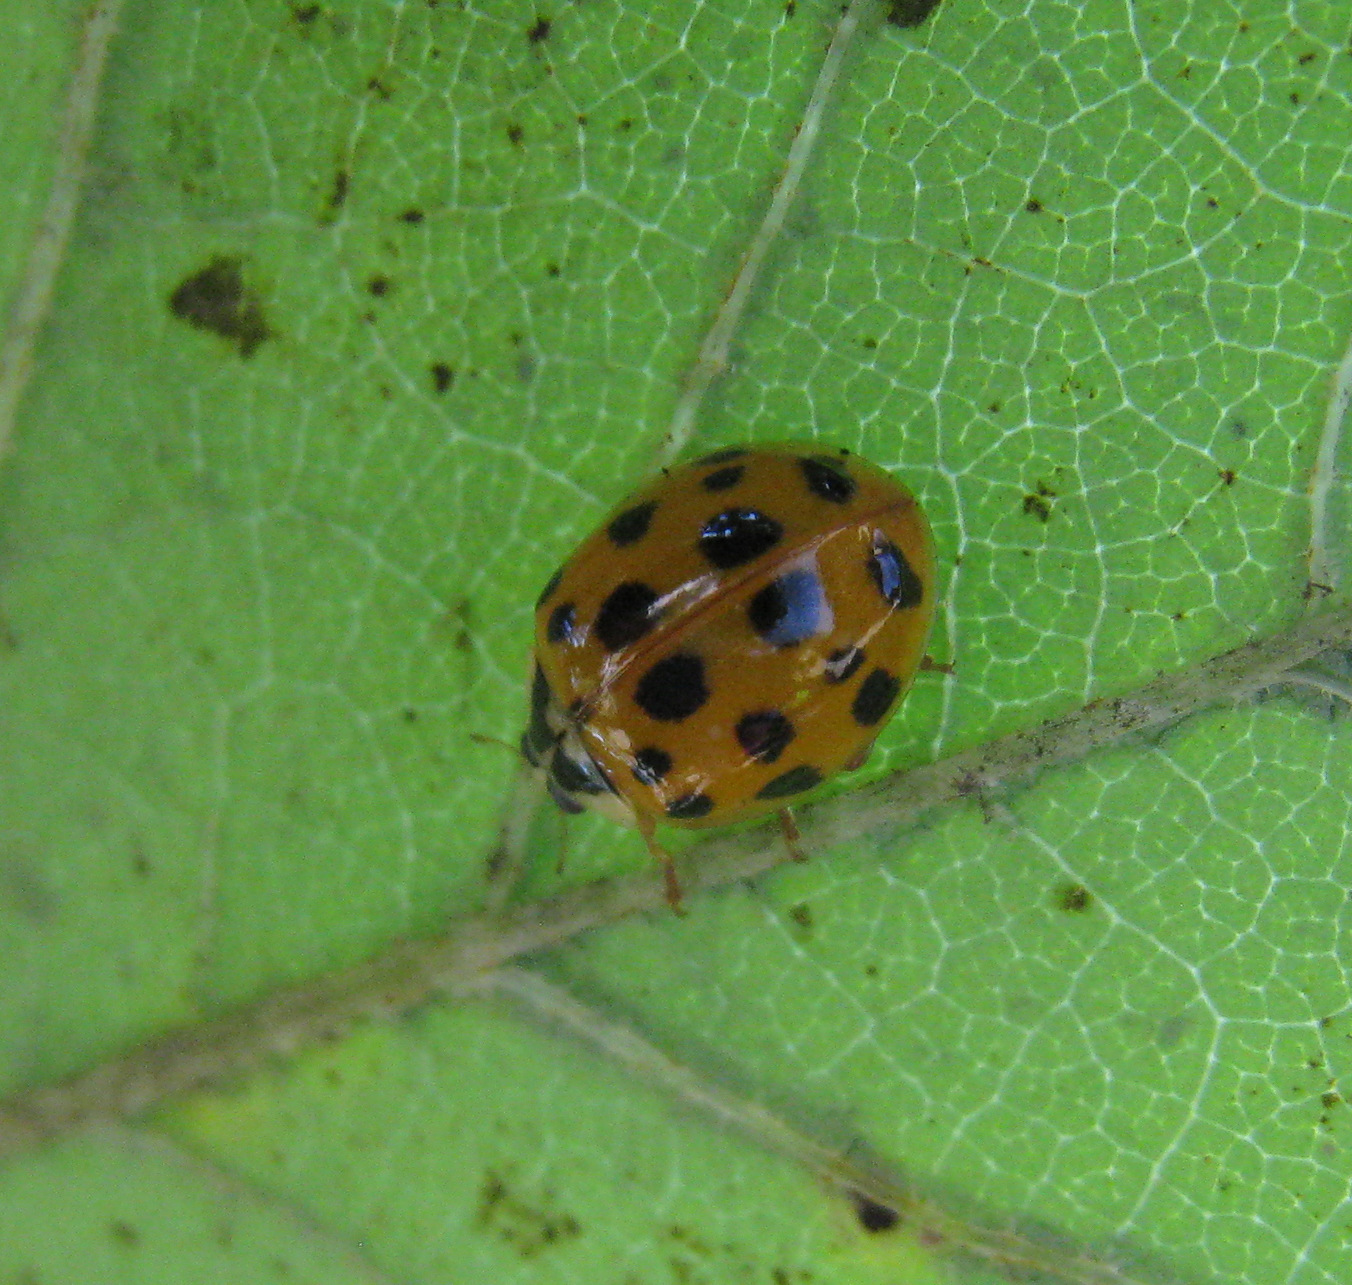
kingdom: Animalia
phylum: Arthropoda
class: Insecta
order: Coleoptera
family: Coccinellidae
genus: Harmonia
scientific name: Harmonia axyridis
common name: Harlequin ladybird
